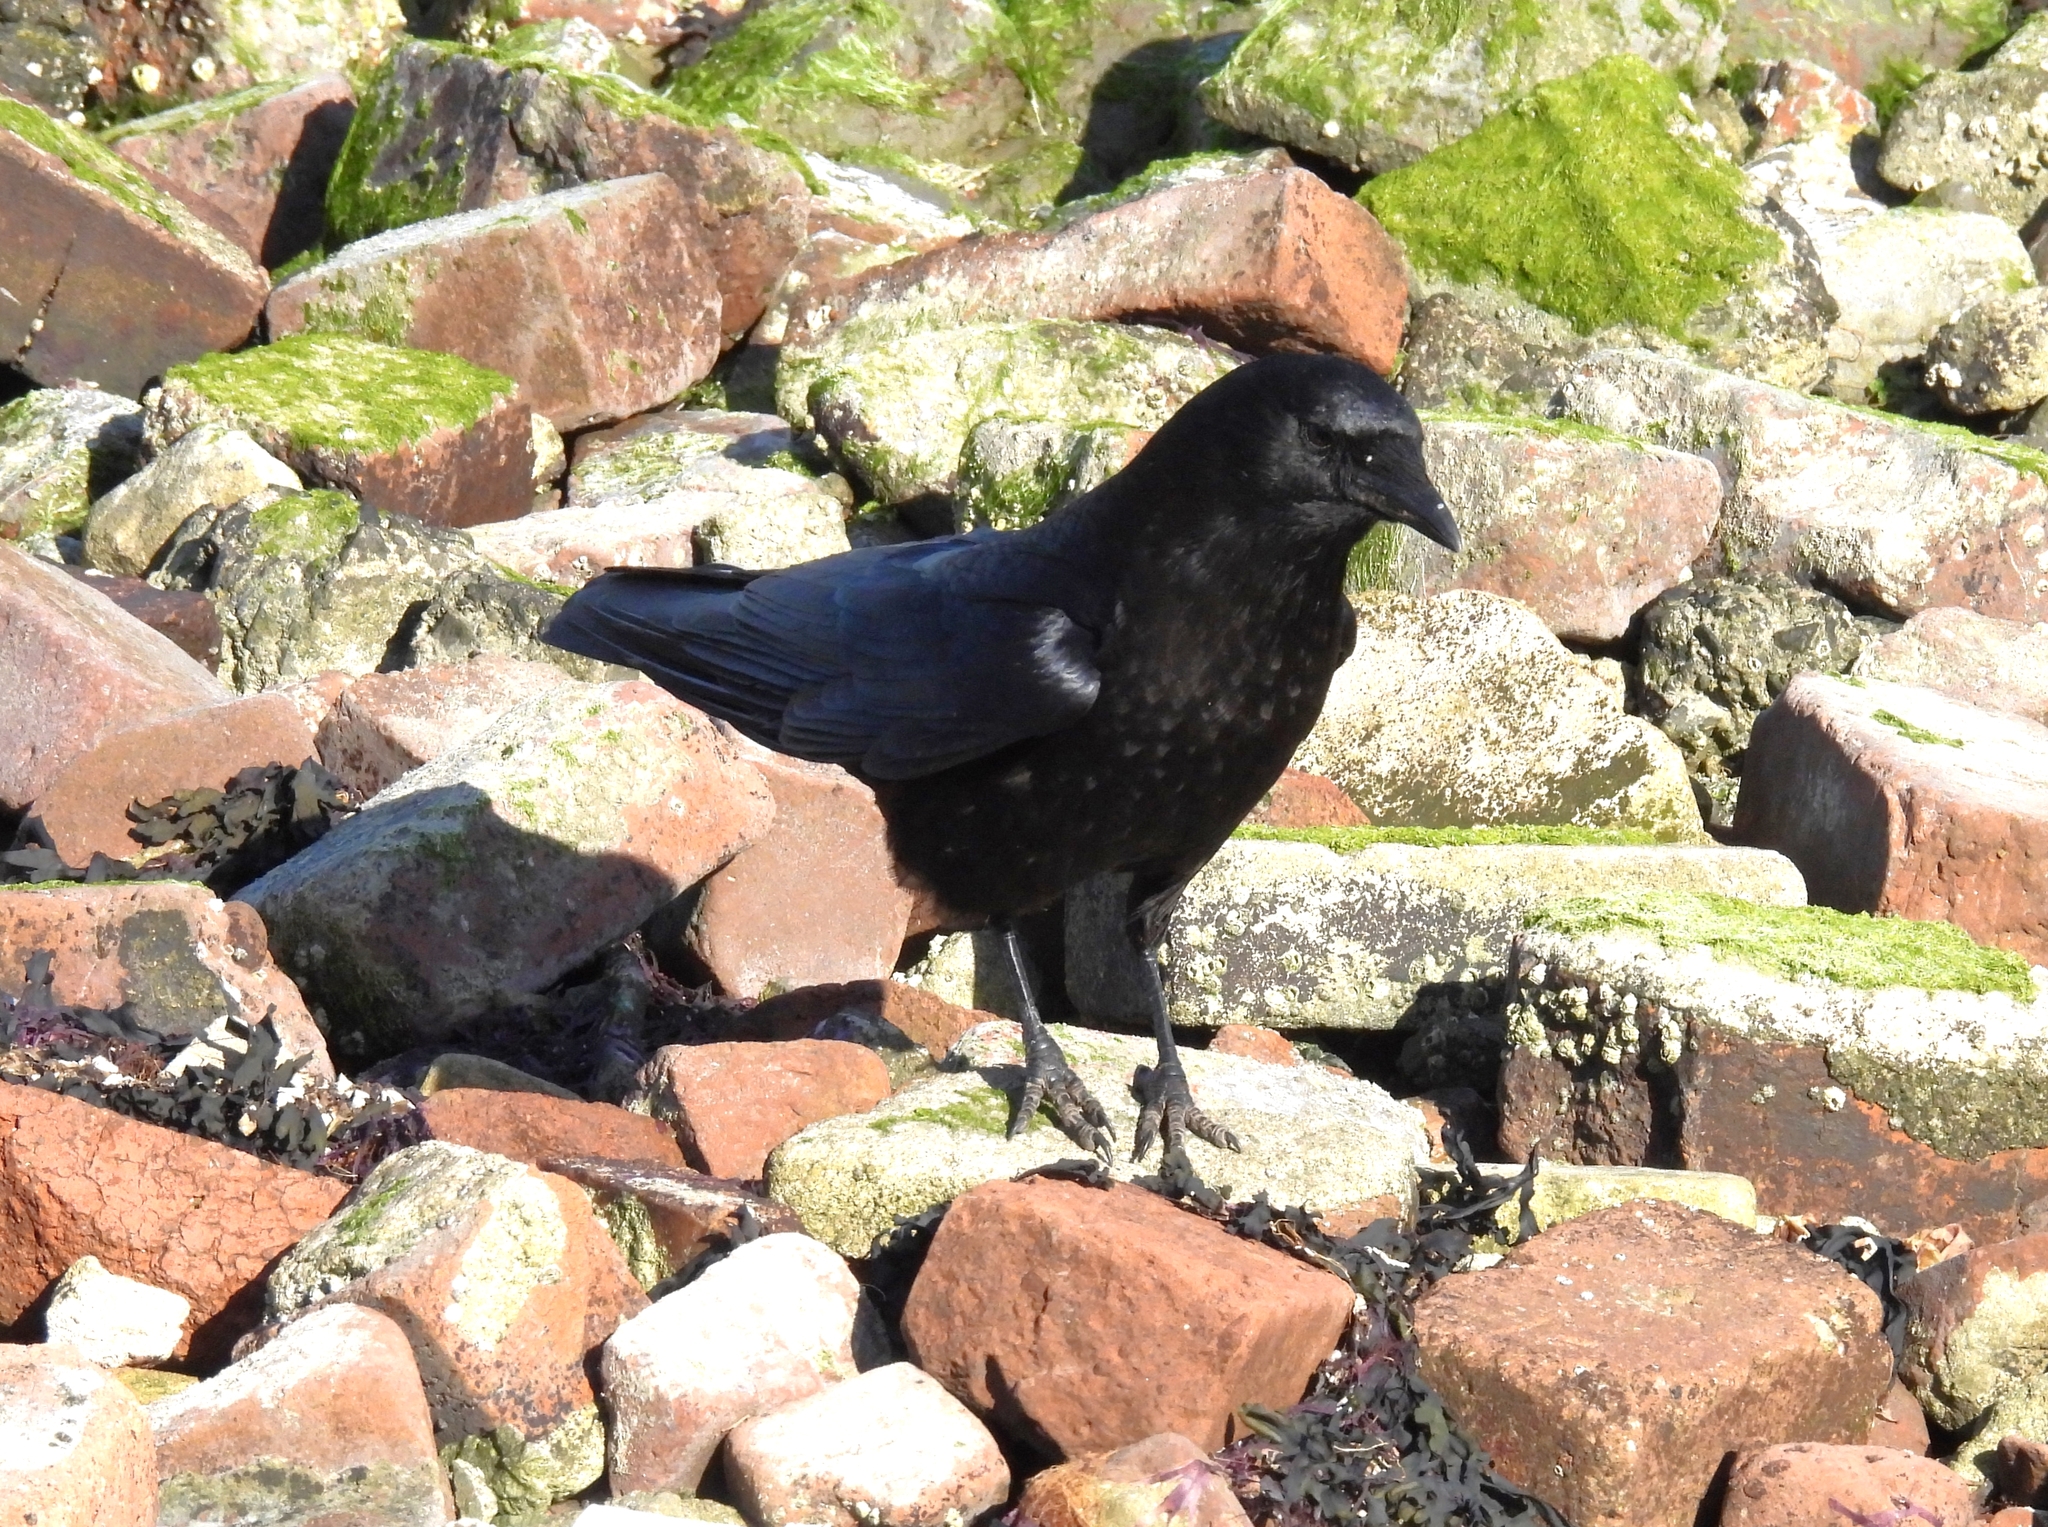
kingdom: Animalia
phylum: Chordata
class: Aves
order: Passeriformes
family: Corvidae
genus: Corvus
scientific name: Corvus brachyrhynchos
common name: American crow
